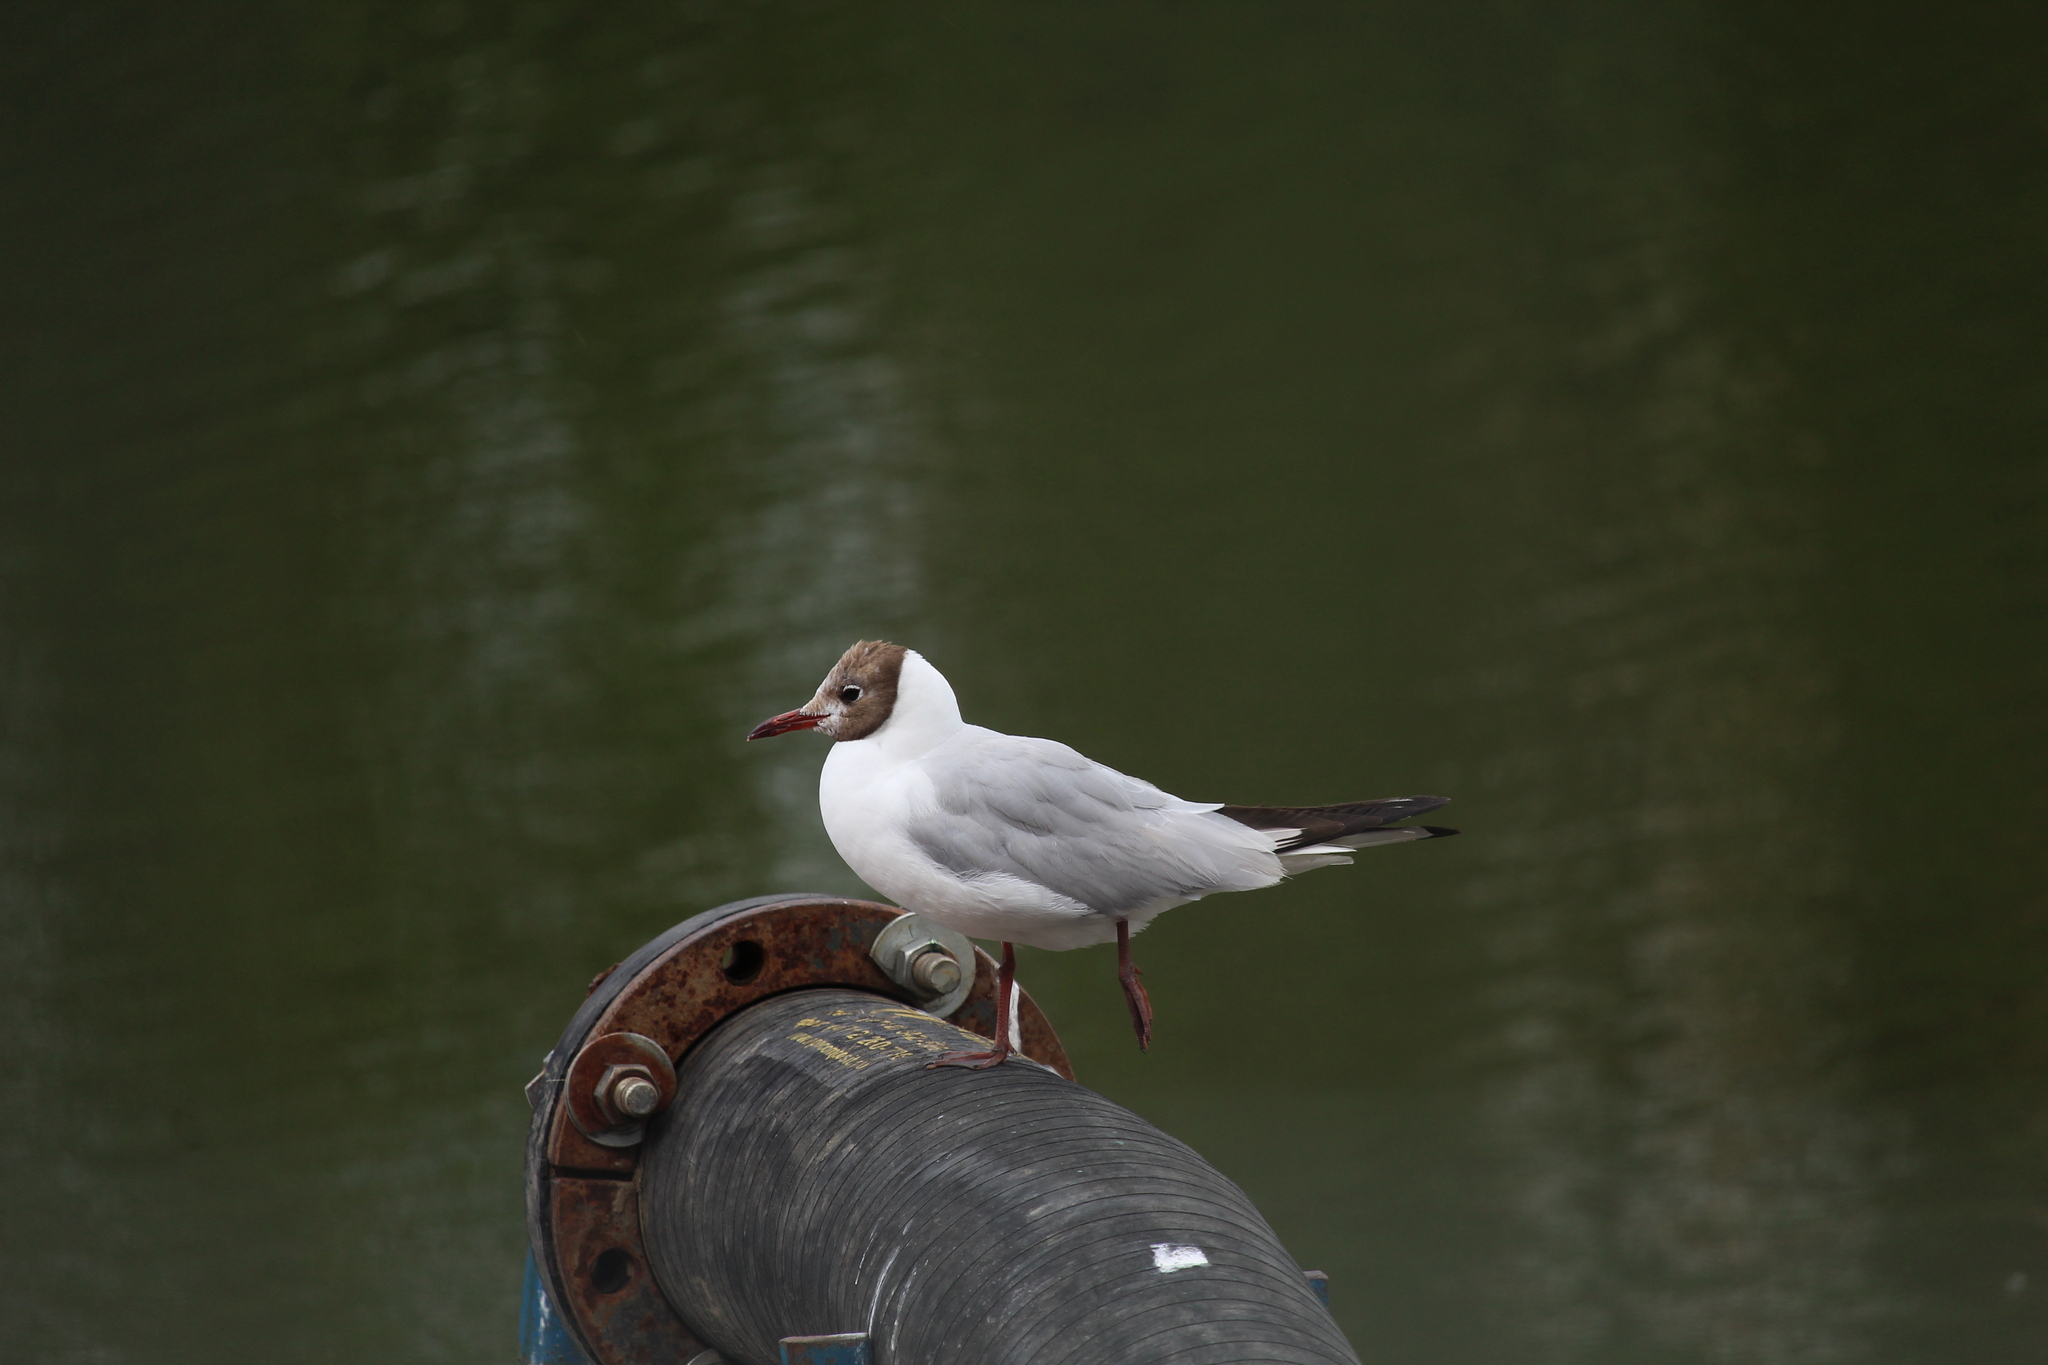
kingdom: Animalia
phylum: Chordata
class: Aves
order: Charadriiformes
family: Laridae
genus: Chroicocephalus
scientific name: Chroicocephalus ridibundus
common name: Black-headed gull
